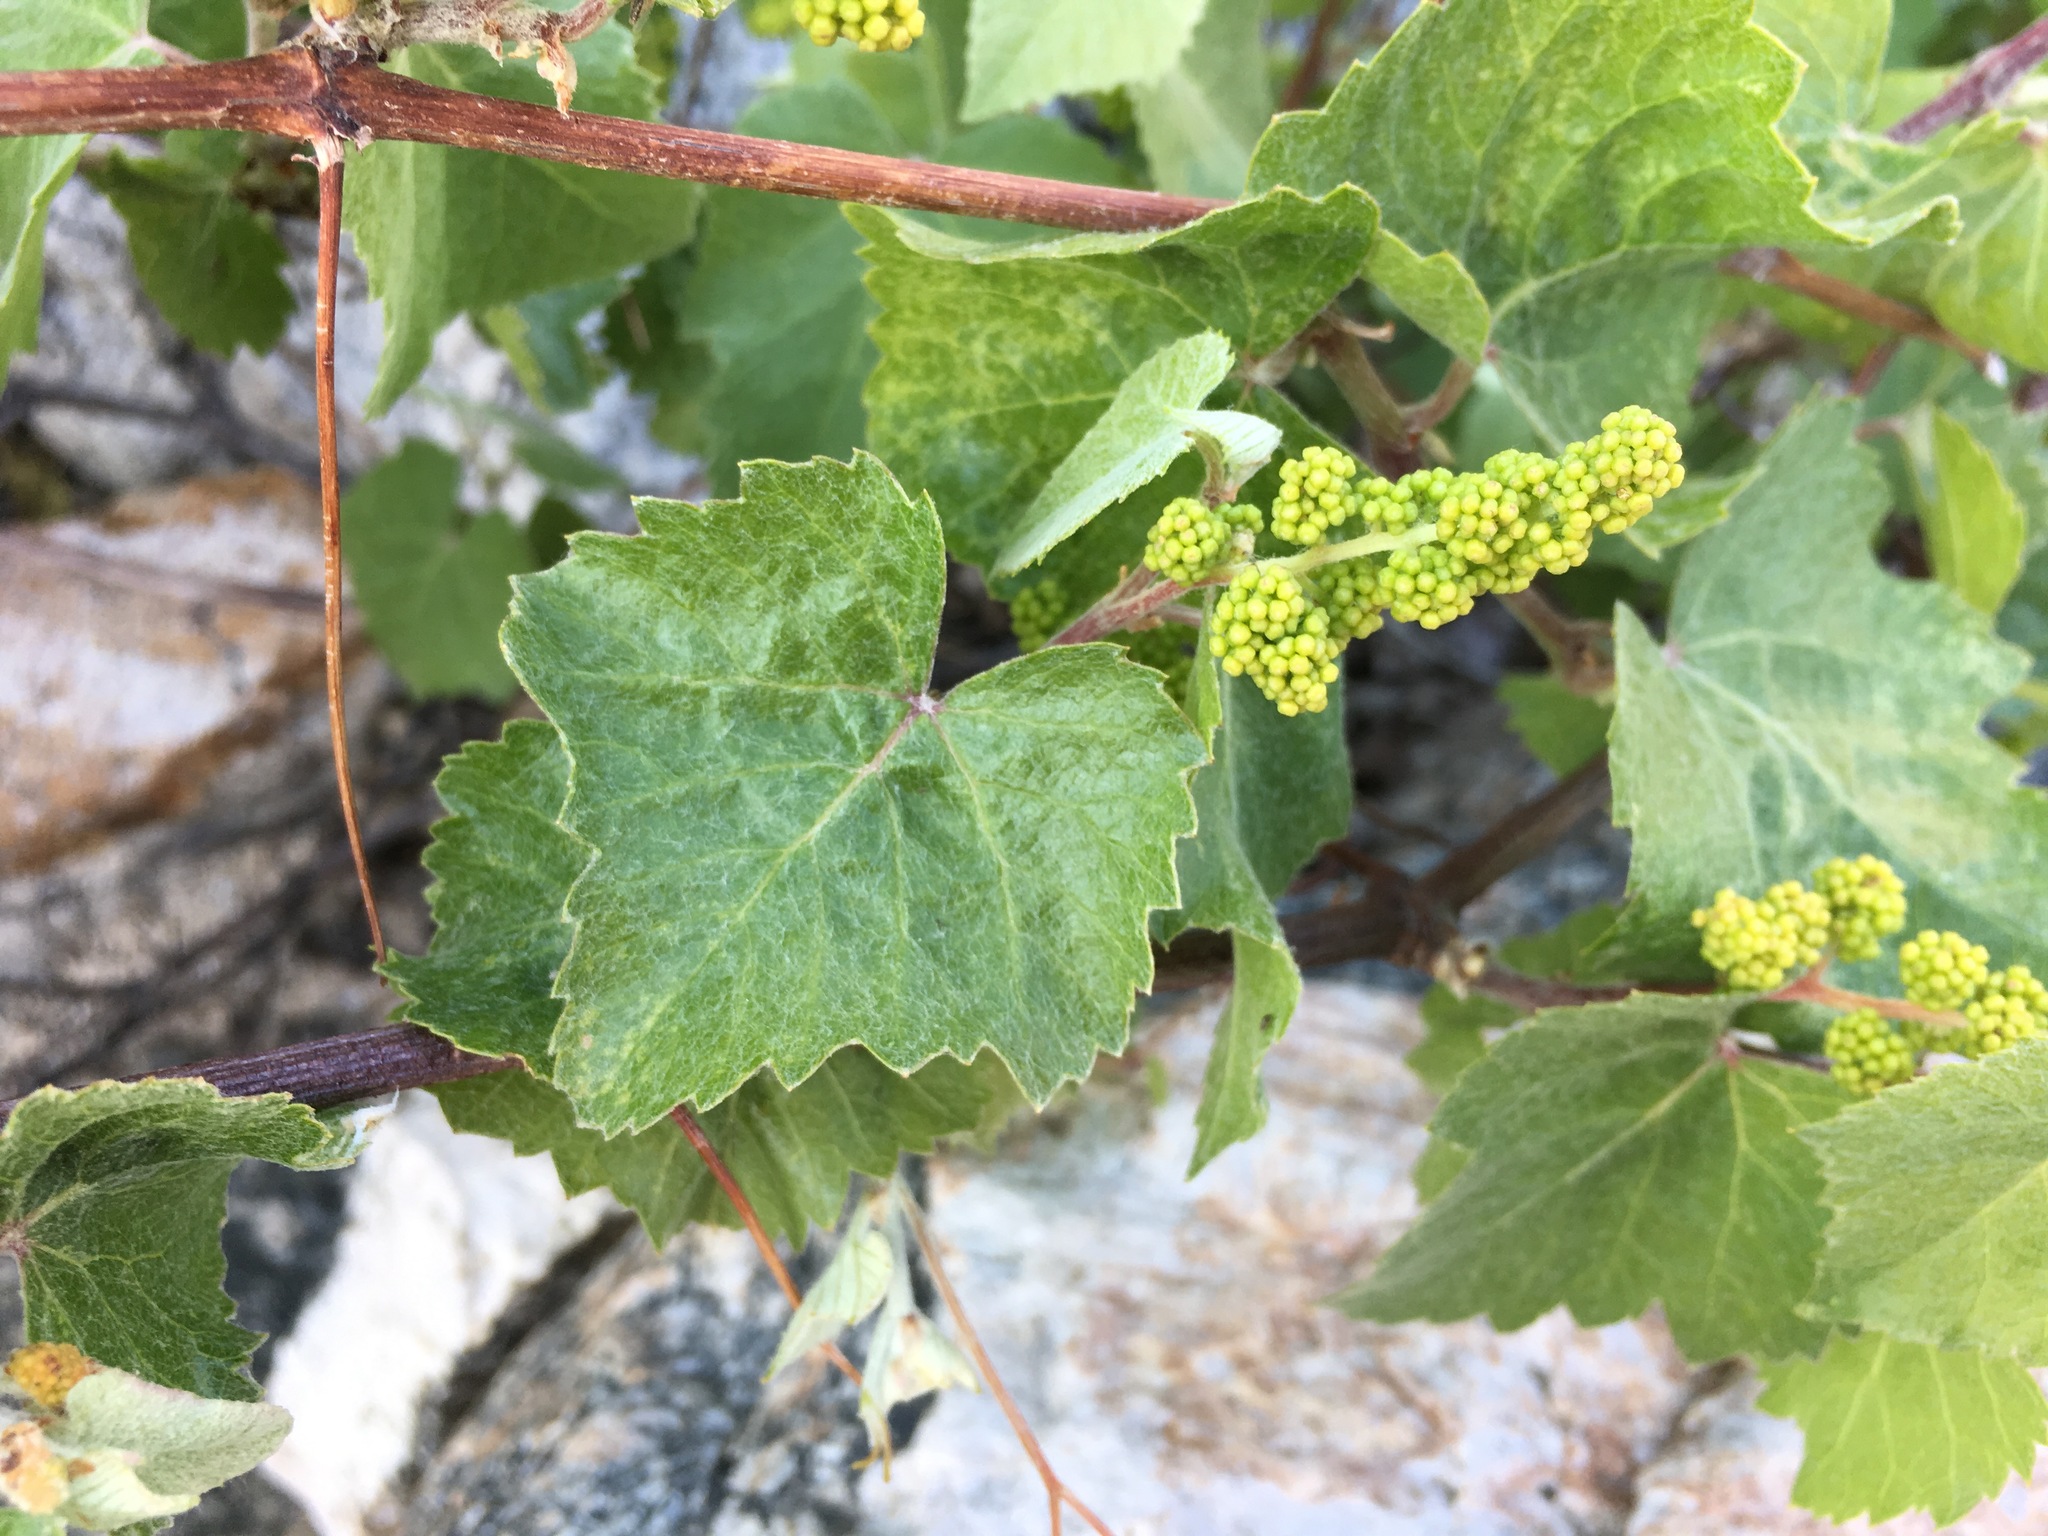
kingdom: Plantae
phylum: Tracheophyta
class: Magnoliopsida
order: Vitales
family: Vitaceae
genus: Vitis
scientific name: Vitis arizonica
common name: Canyon grape
